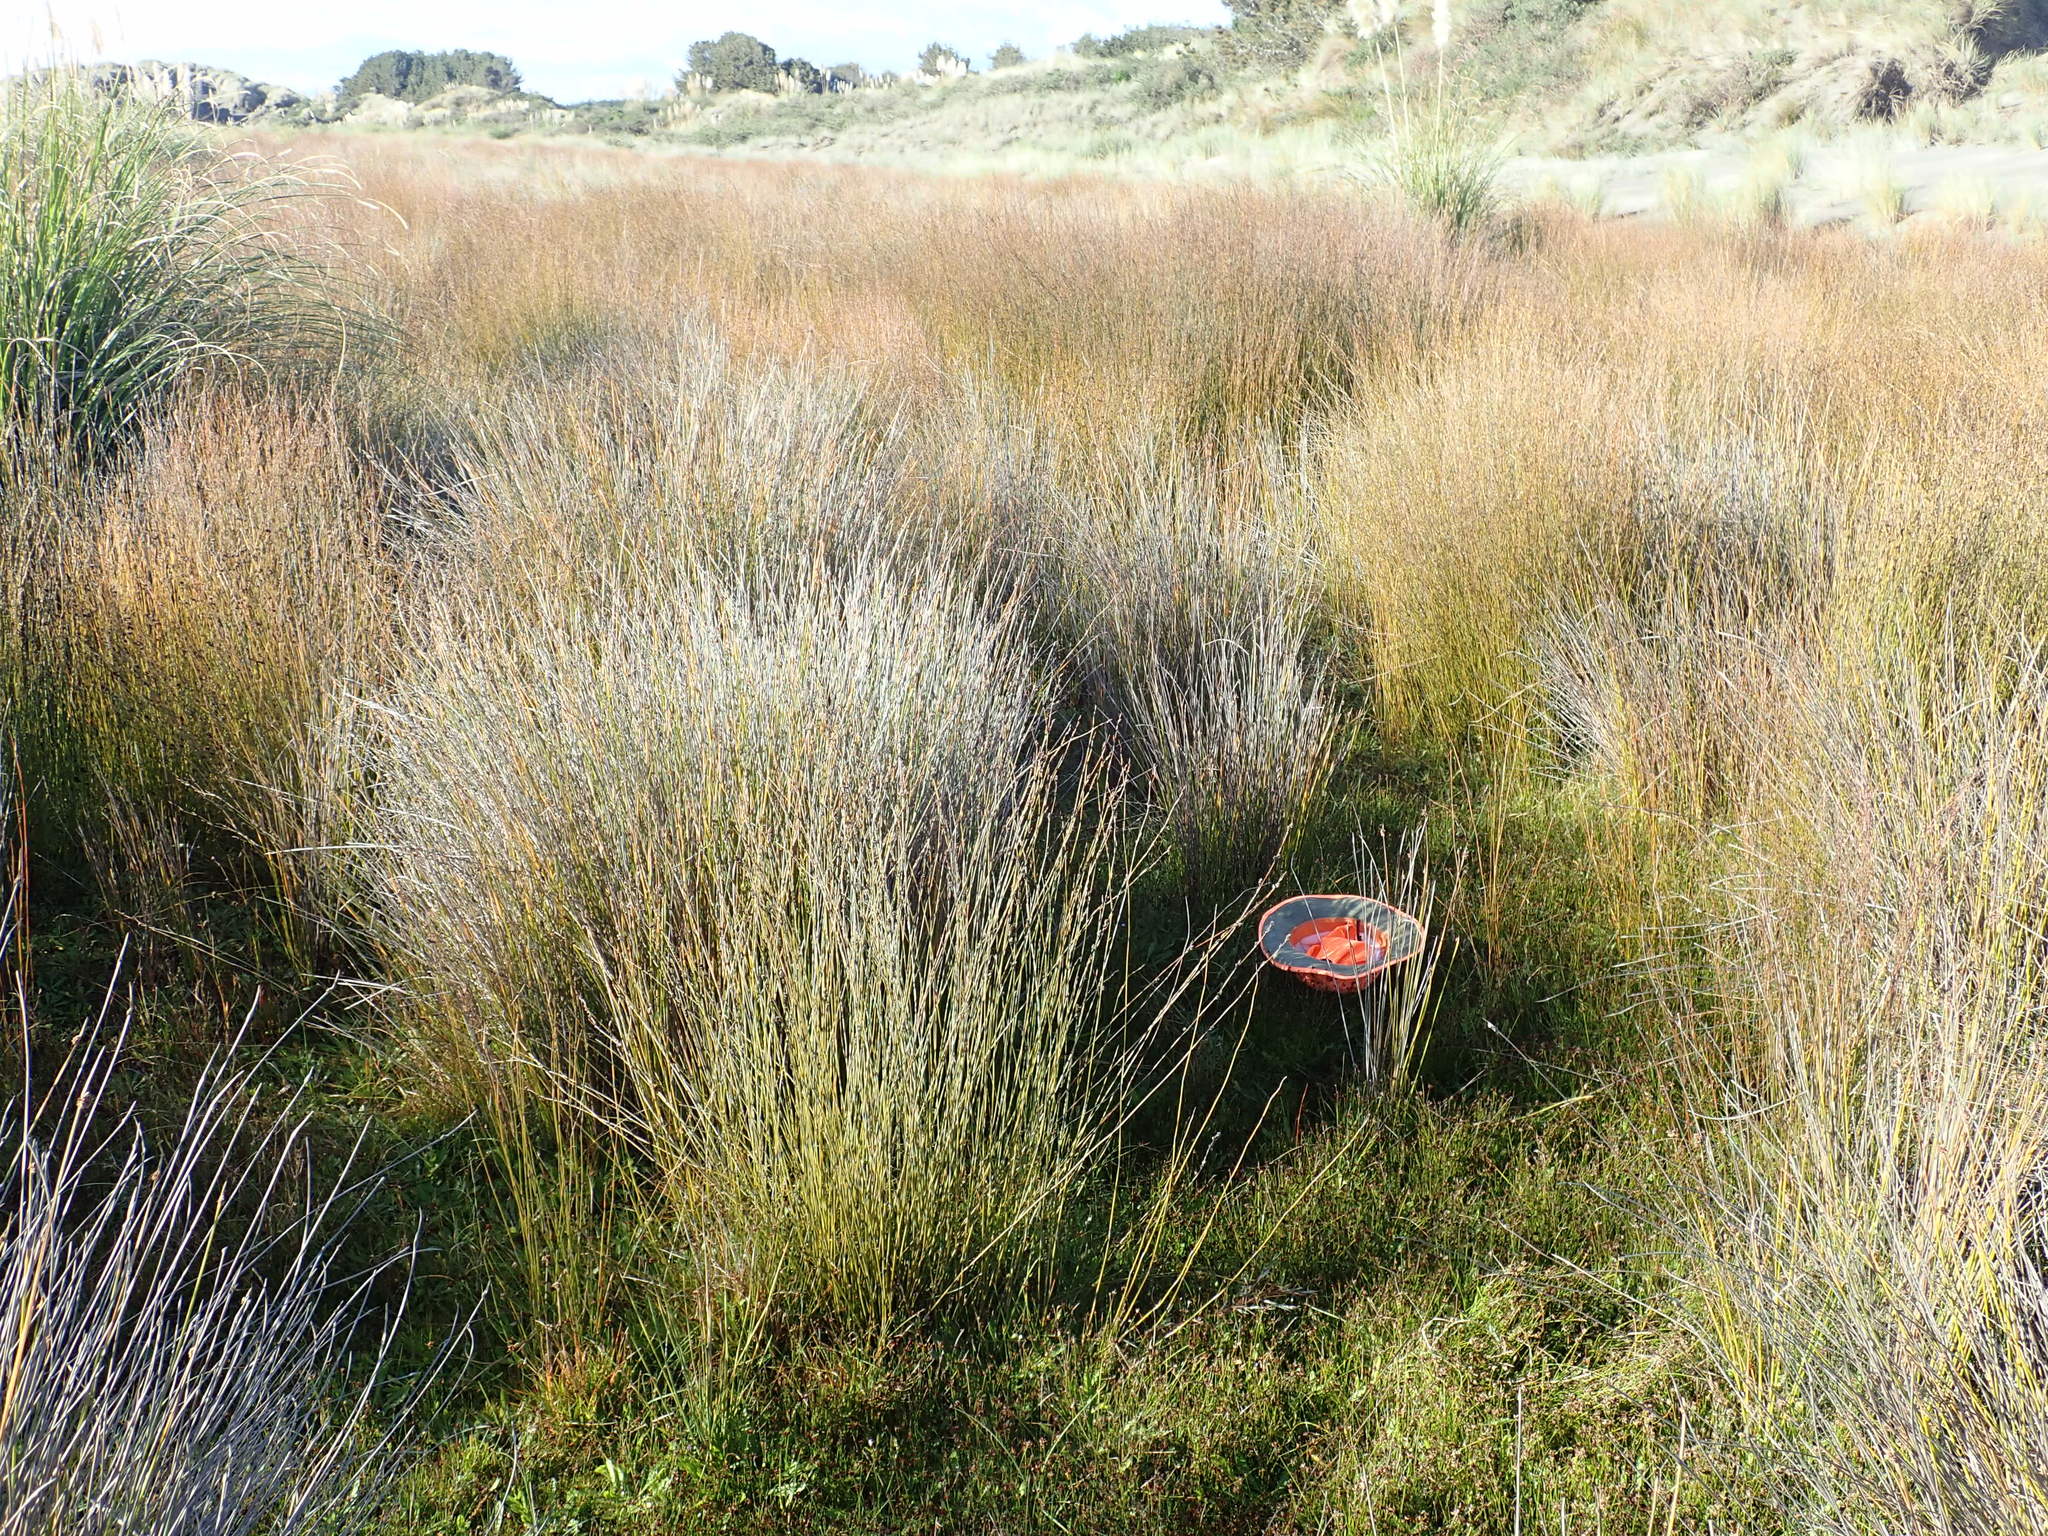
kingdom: Plantae
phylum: Tracheophyta
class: Magnoliopsida
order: Asterales
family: Campanulaceae
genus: Lobelia
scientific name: Lobelia anceps
